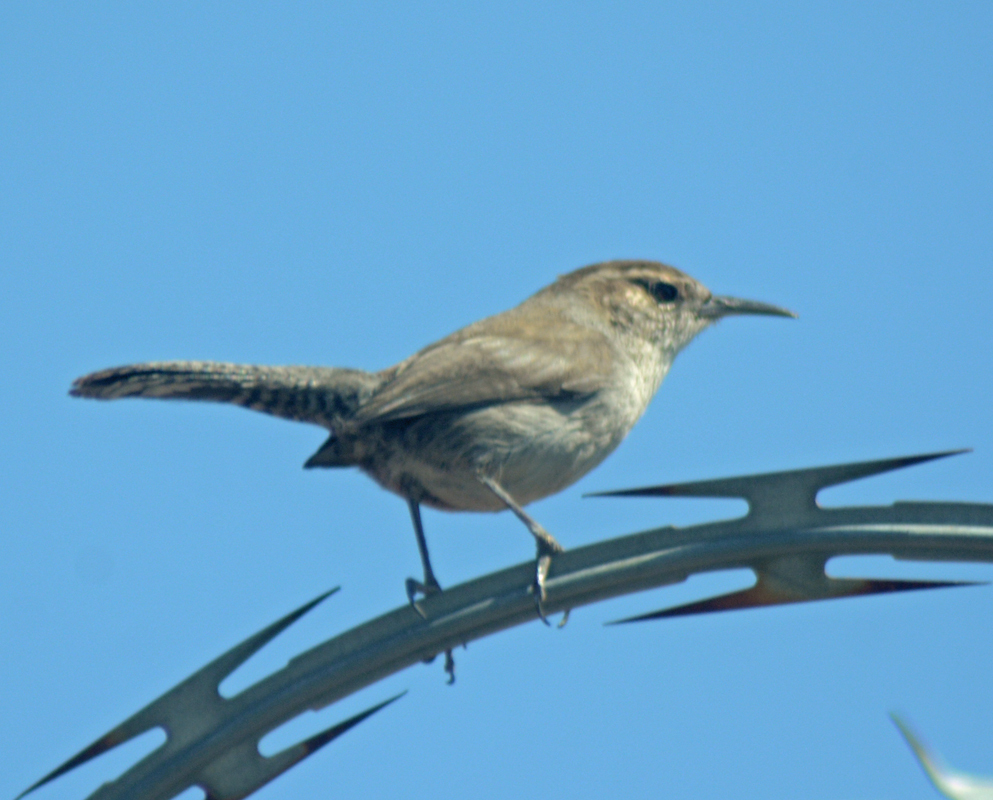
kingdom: Animalia
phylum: Chordata
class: Aves
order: Passeriformes
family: Troglodytidae
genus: Thryomanes
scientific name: Thryomanes bewickii
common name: Bewick's wren
